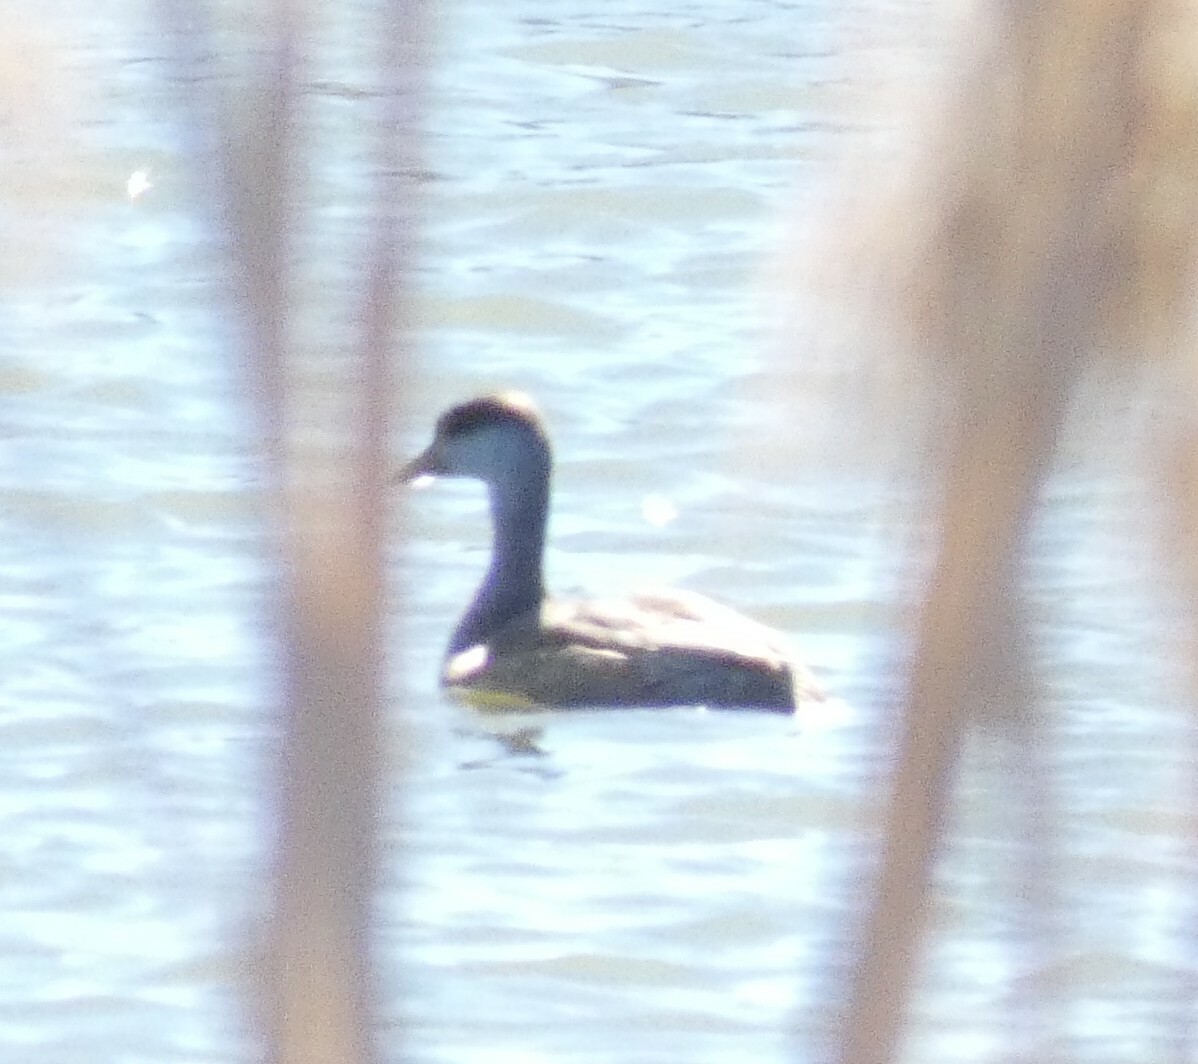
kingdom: Animalia
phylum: Chordata
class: Aves
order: Anseriformes
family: Anatidae
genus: Netta
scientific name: Netta rufina
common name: Red-crested pochard
